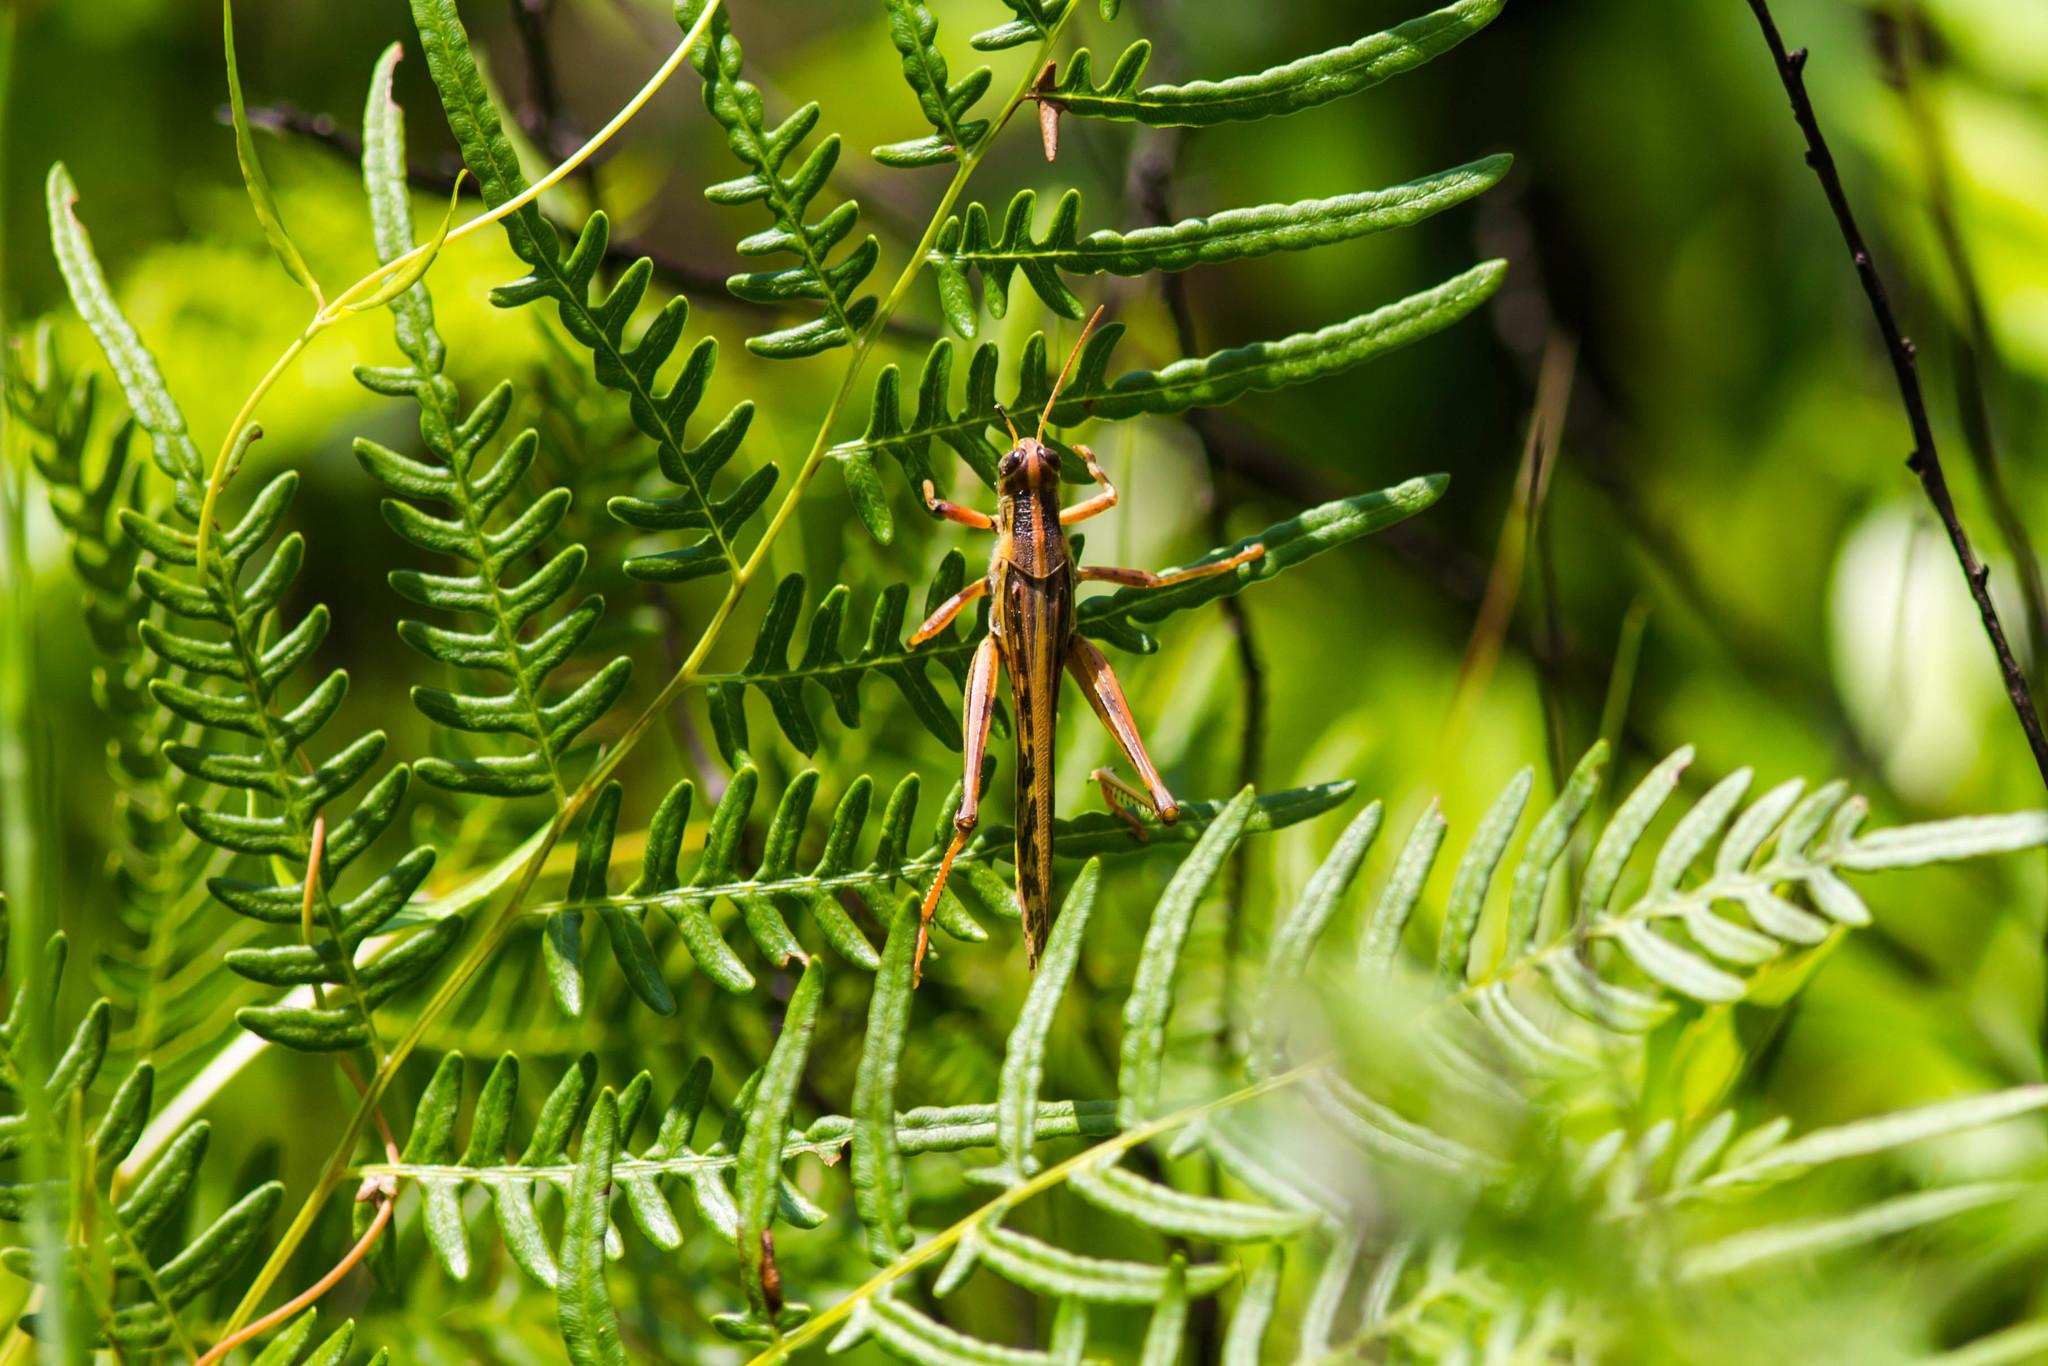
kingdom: Animalia
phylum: Arthropoda
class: Insecta
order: Orthoptera
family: Acrididae
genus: Schistocerca
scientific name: Schistocerca americana
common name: American bird locust
